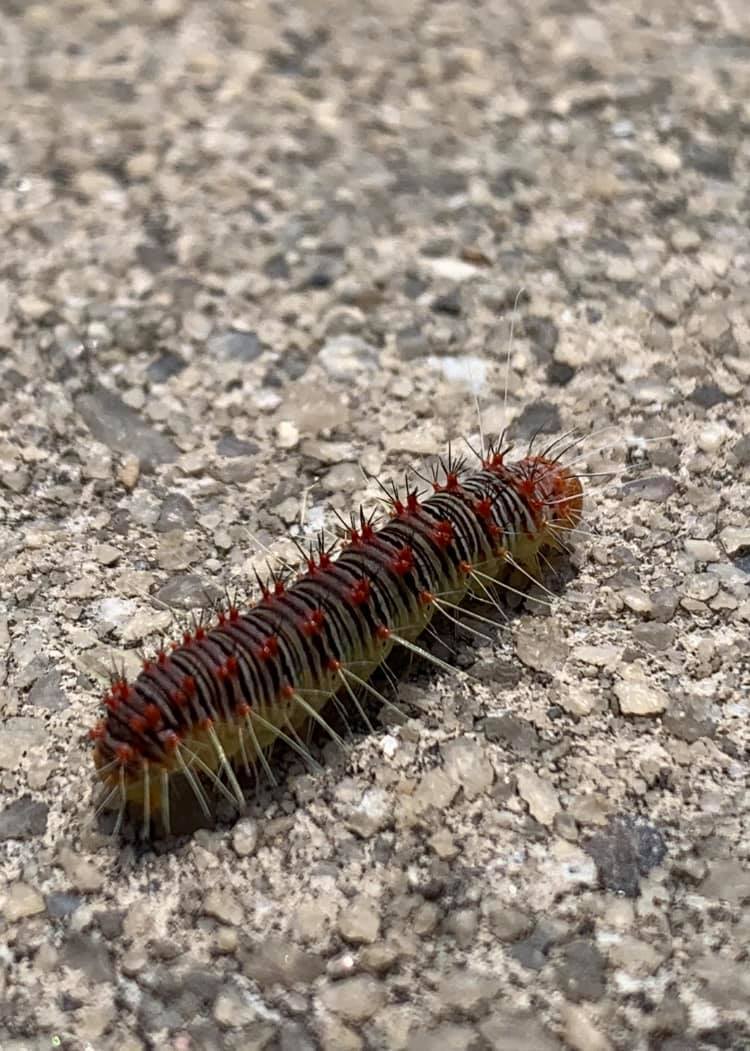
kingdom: Animalia
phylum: Arthropoda
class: Insecta
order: Lepidoptera
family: Noctuidae
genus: Acronicta
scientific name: Acronicta retardata
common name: Maple dagger
